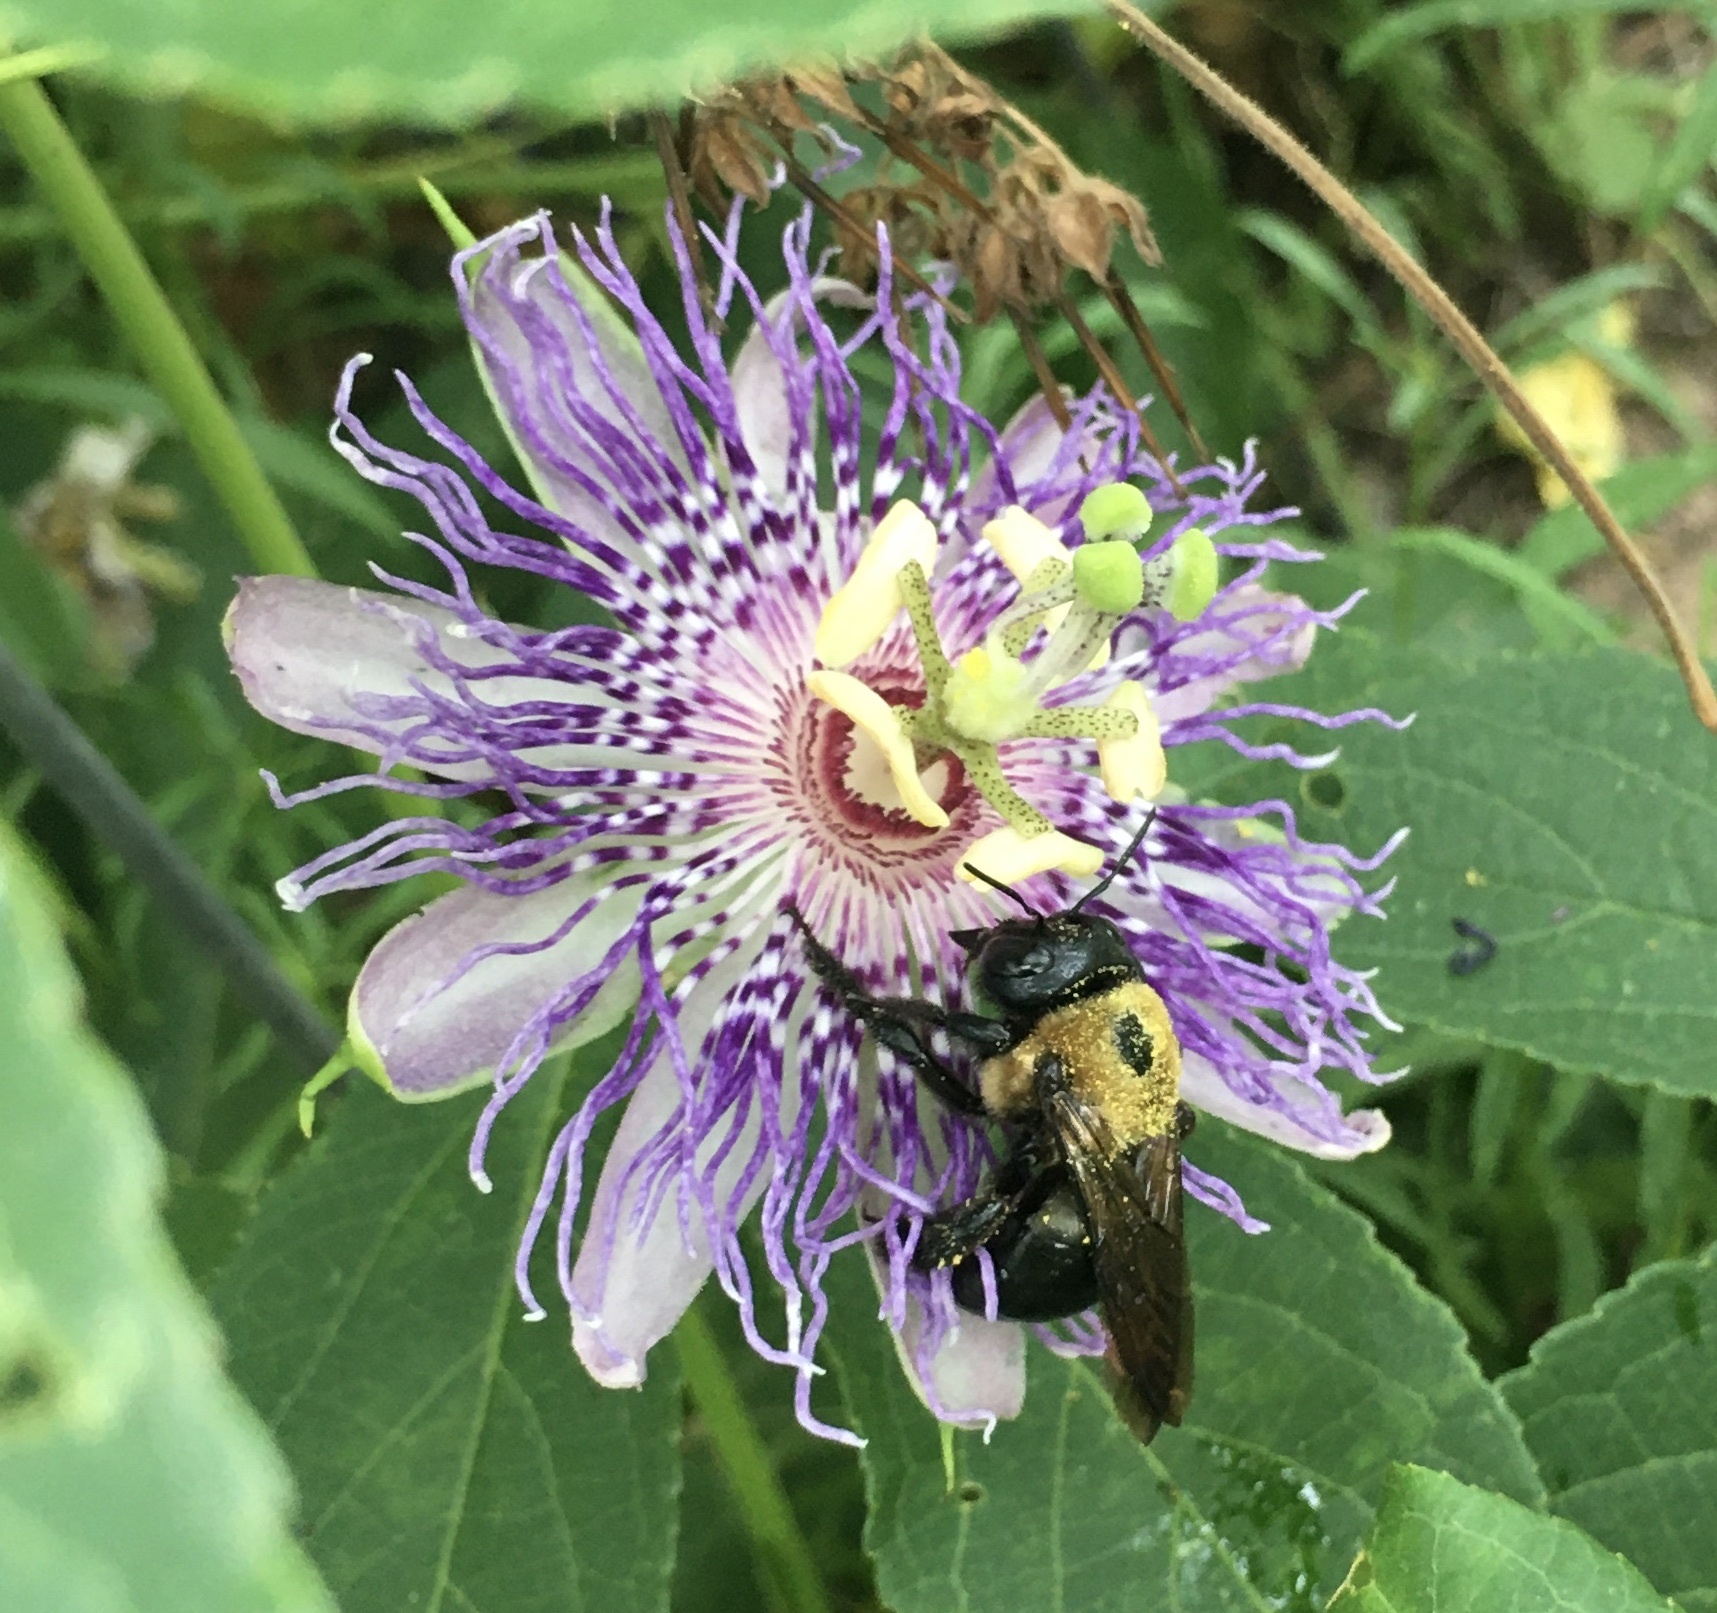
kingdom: Animalia
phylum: Arthropoda
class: Insecta
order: Hymenoptera
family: Apidae
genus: Xylocopa
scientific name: Xylocopa virginica
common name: Carpenter bee
